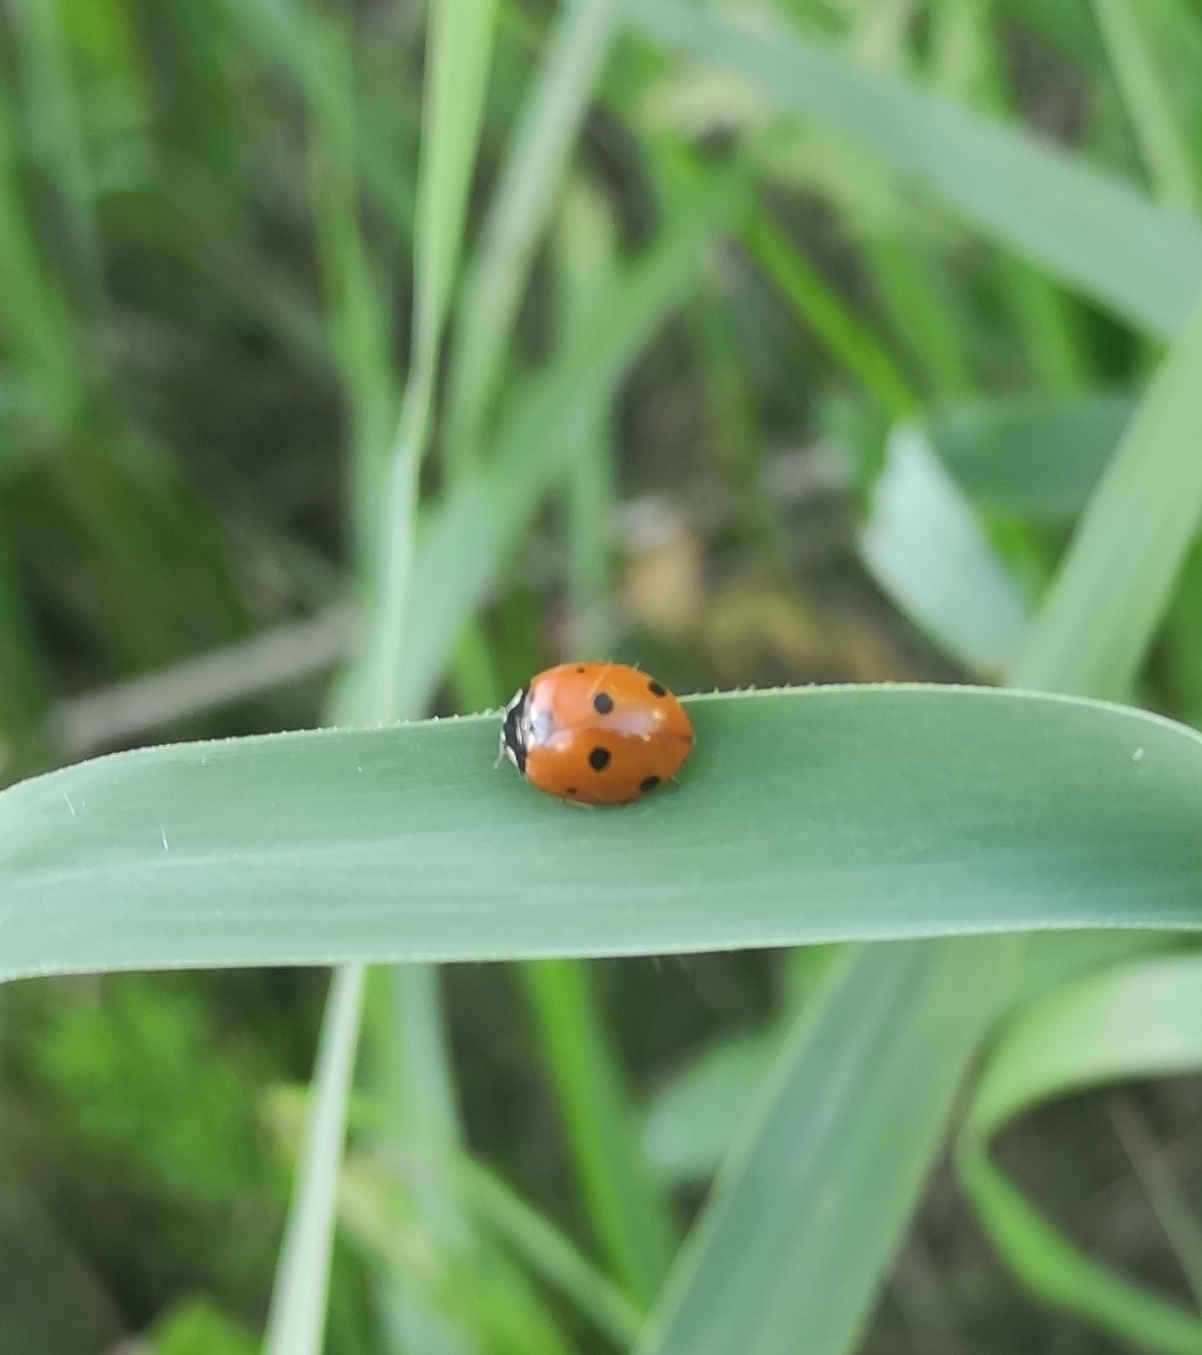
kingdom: Animalia
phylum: Arthropoda
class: Insecta
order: Coleoptera
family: Coccinellidae
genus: Coccinella
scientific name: Coccinella septempunctata
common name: Sevenspotted lady beetle
